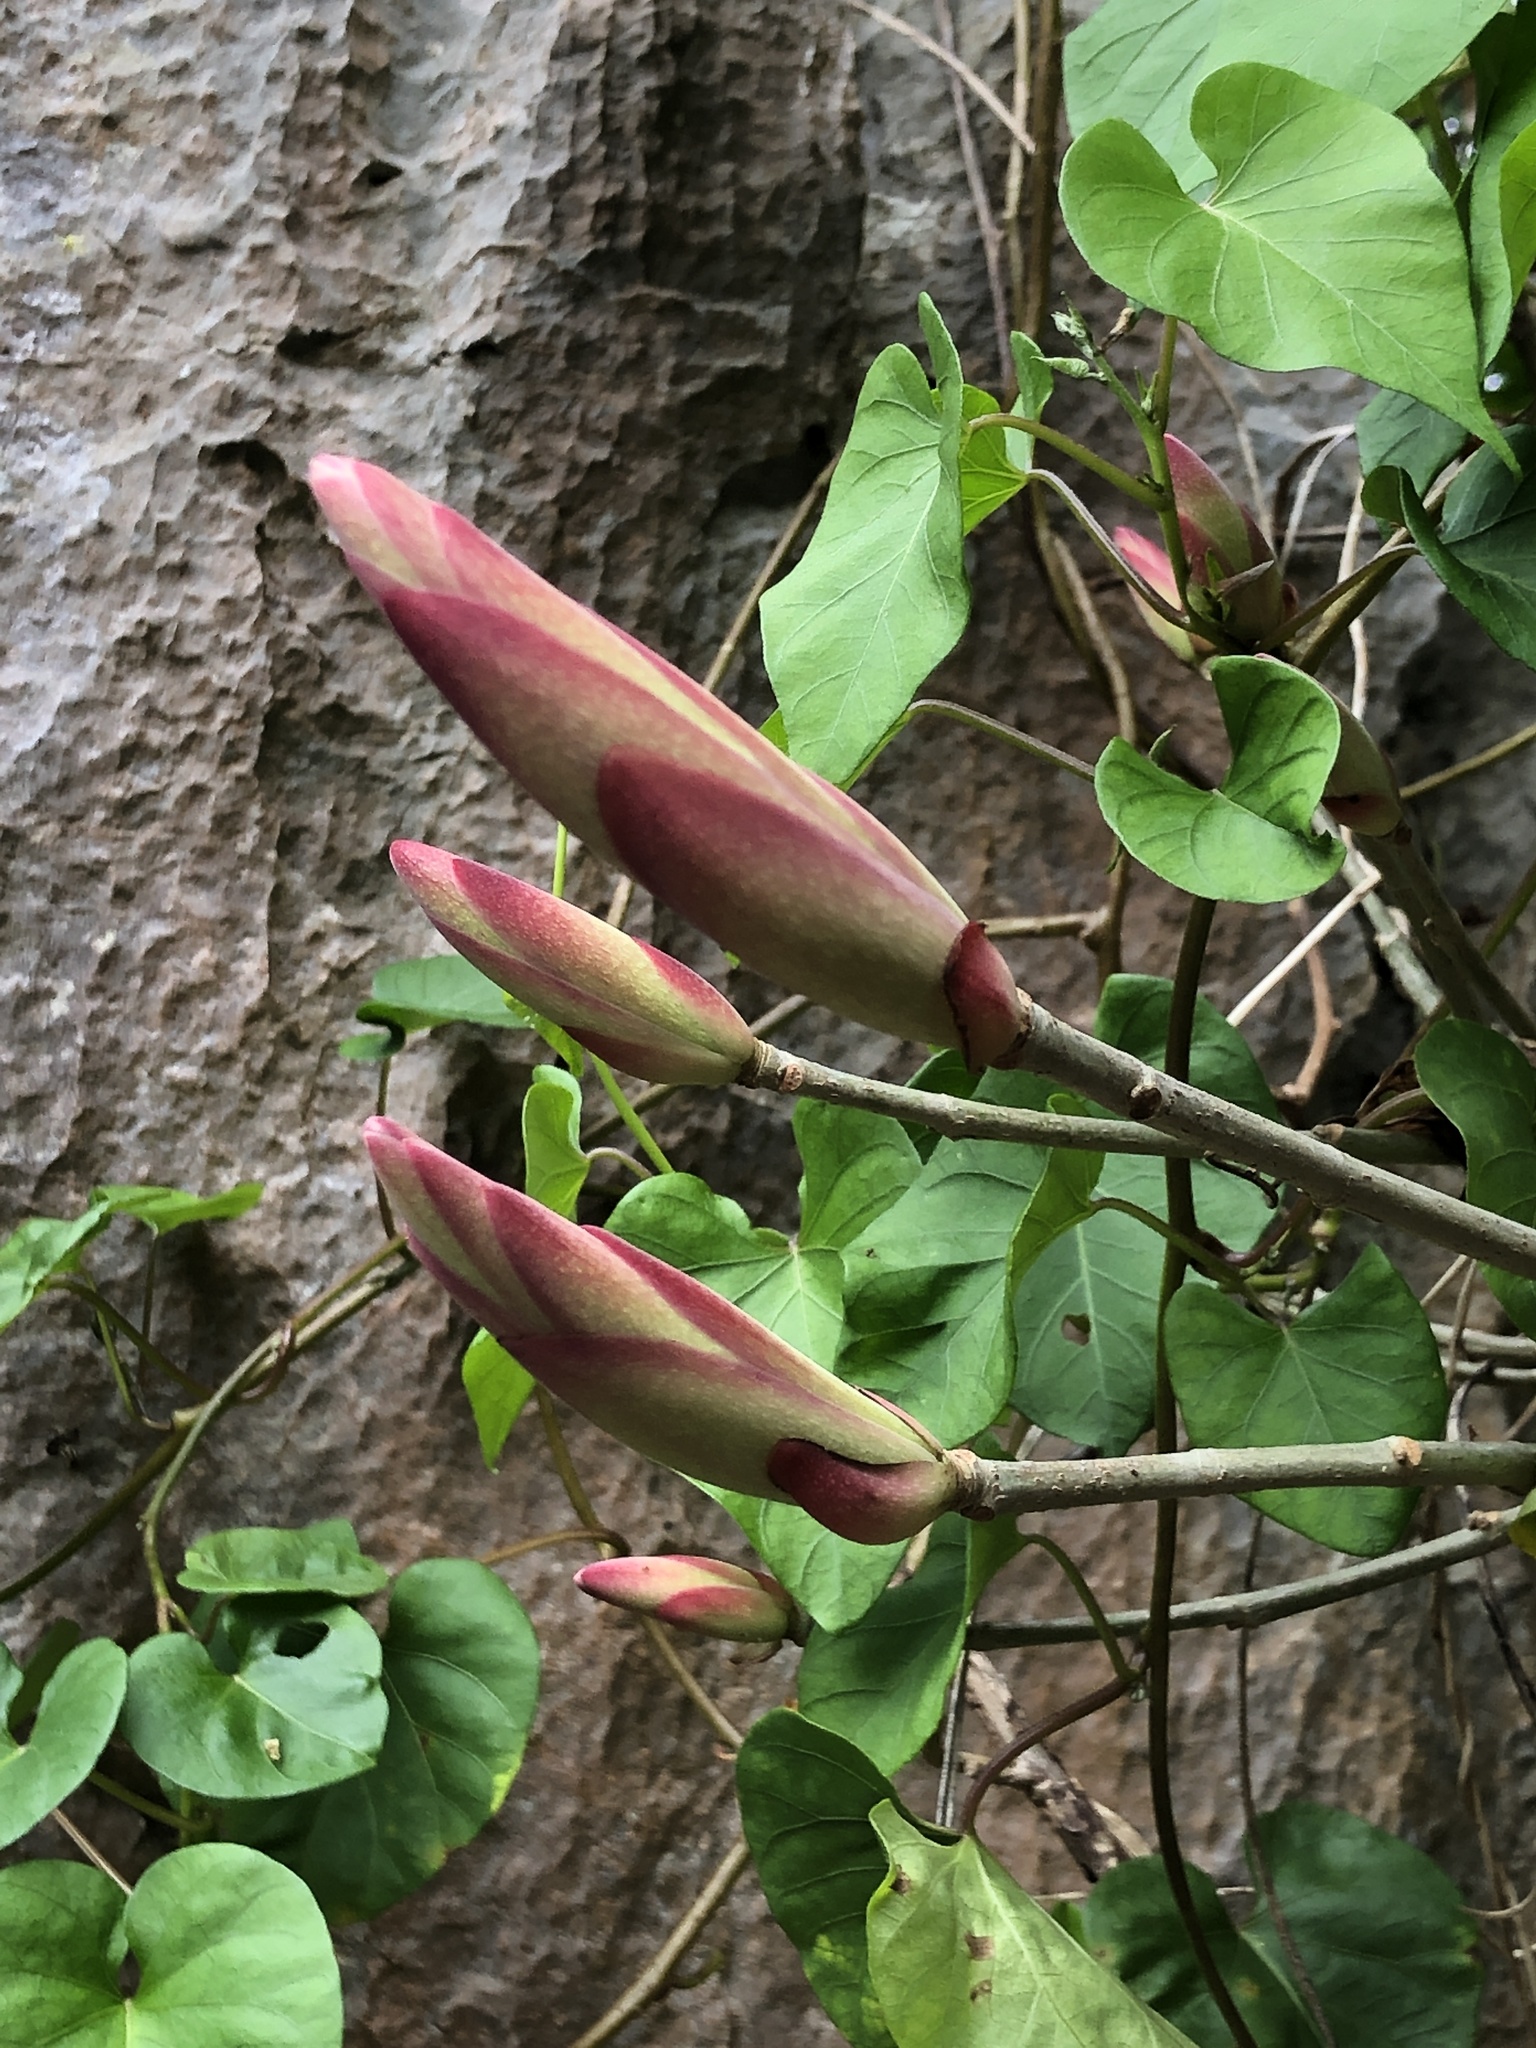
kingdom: Plantae
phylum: Tracheophyta
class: Magnoliopsida
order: Rosales
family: Moraceae
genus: Ficus
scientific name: Ficus subpisocarpa
